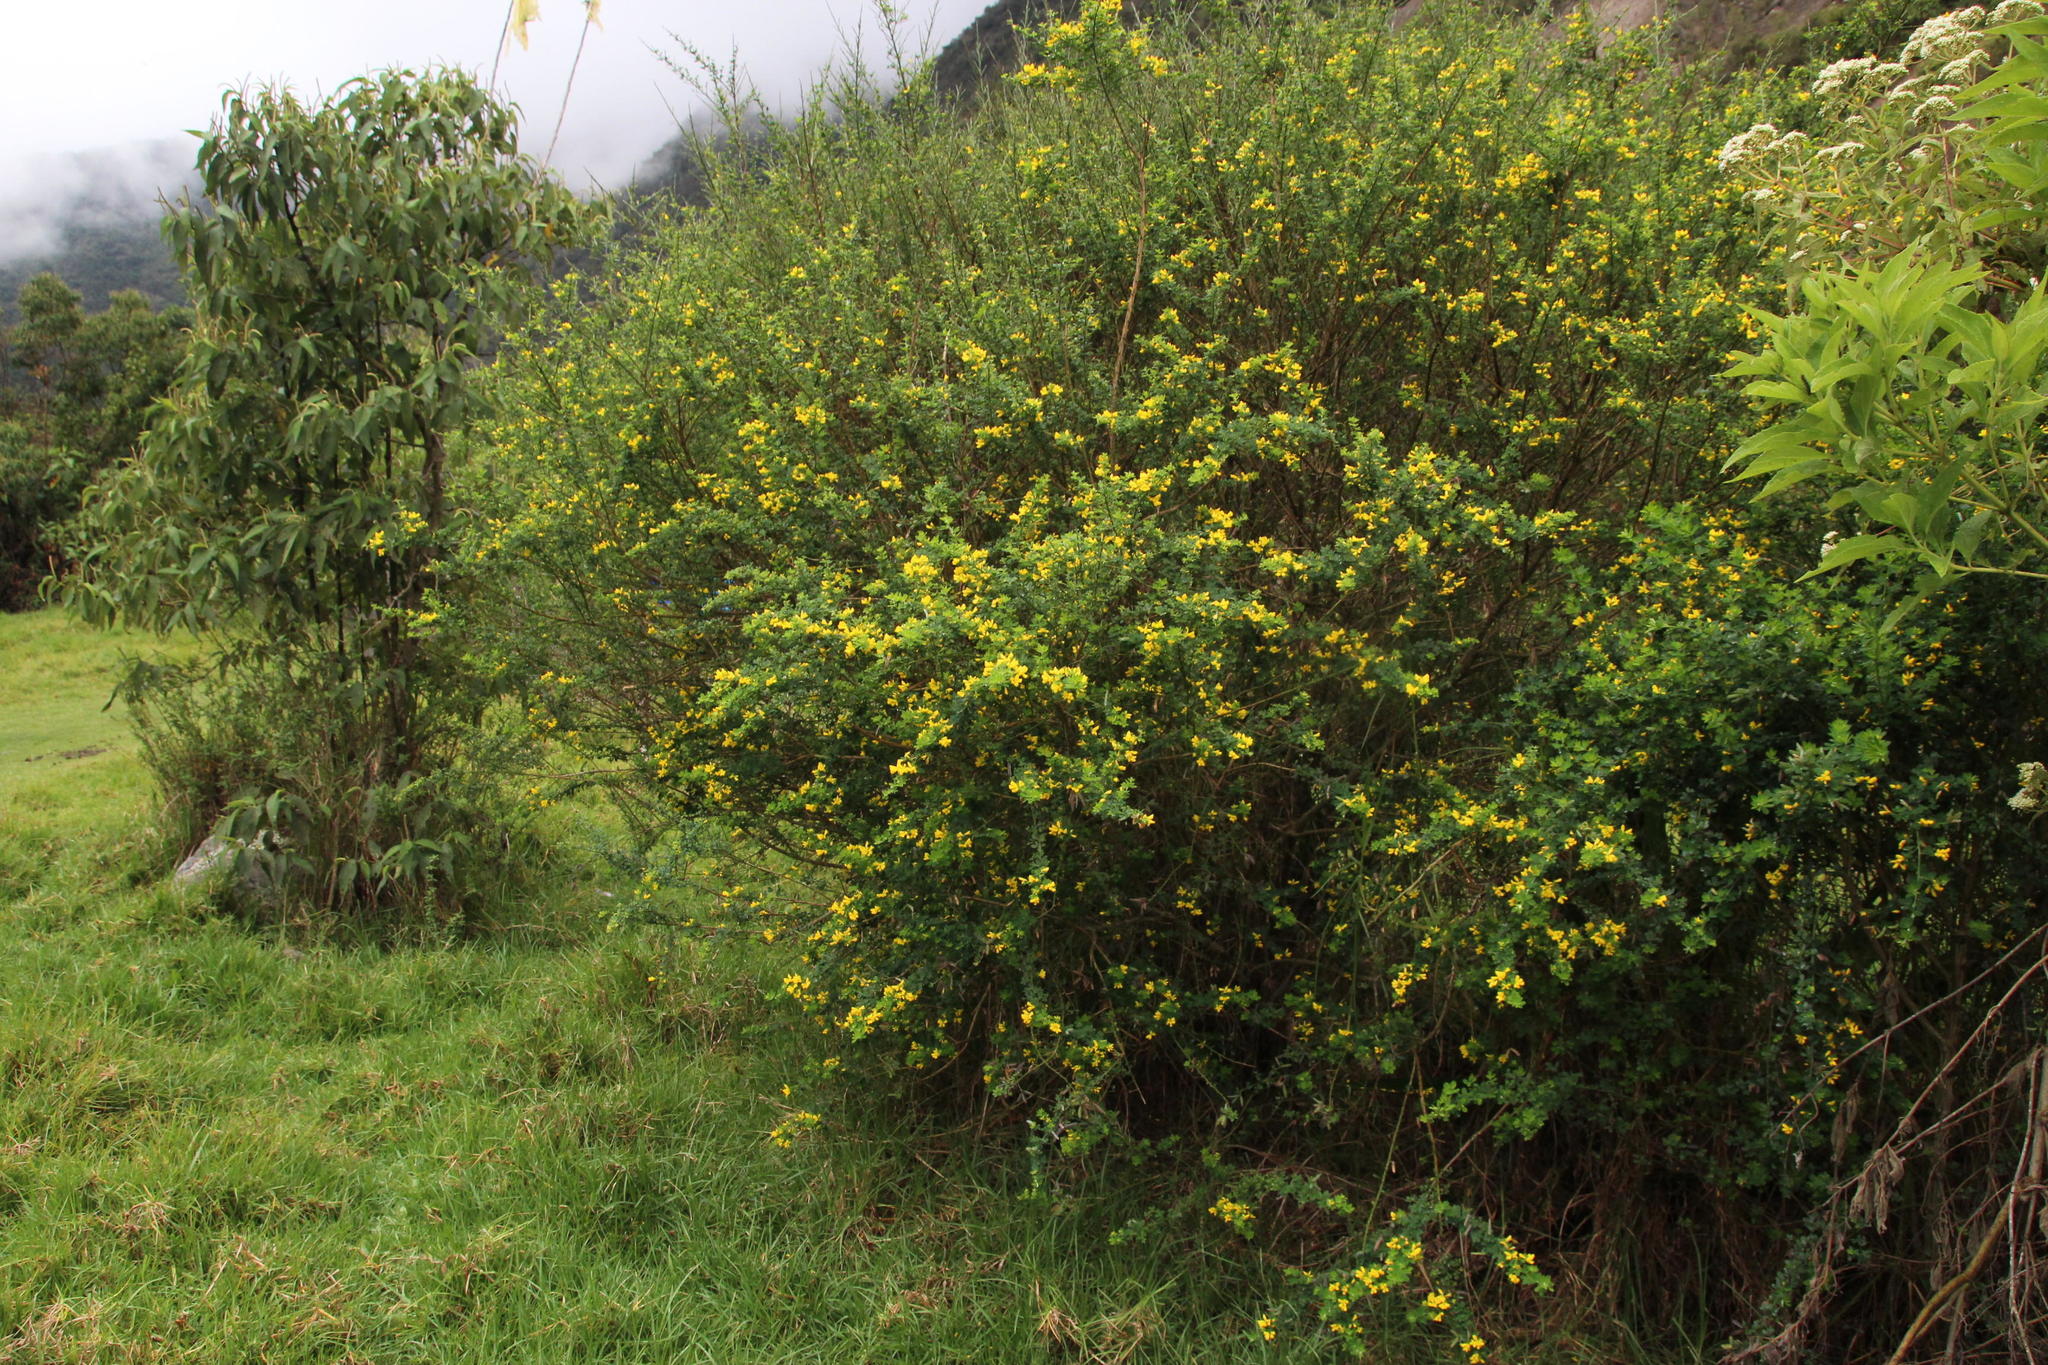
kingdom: Plantae
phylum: Tracheophyta
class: Magnoliopsida
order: Fabales
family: Fabaceae
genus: Genista
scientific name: Genista monspessulana
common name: Montpellier broom
